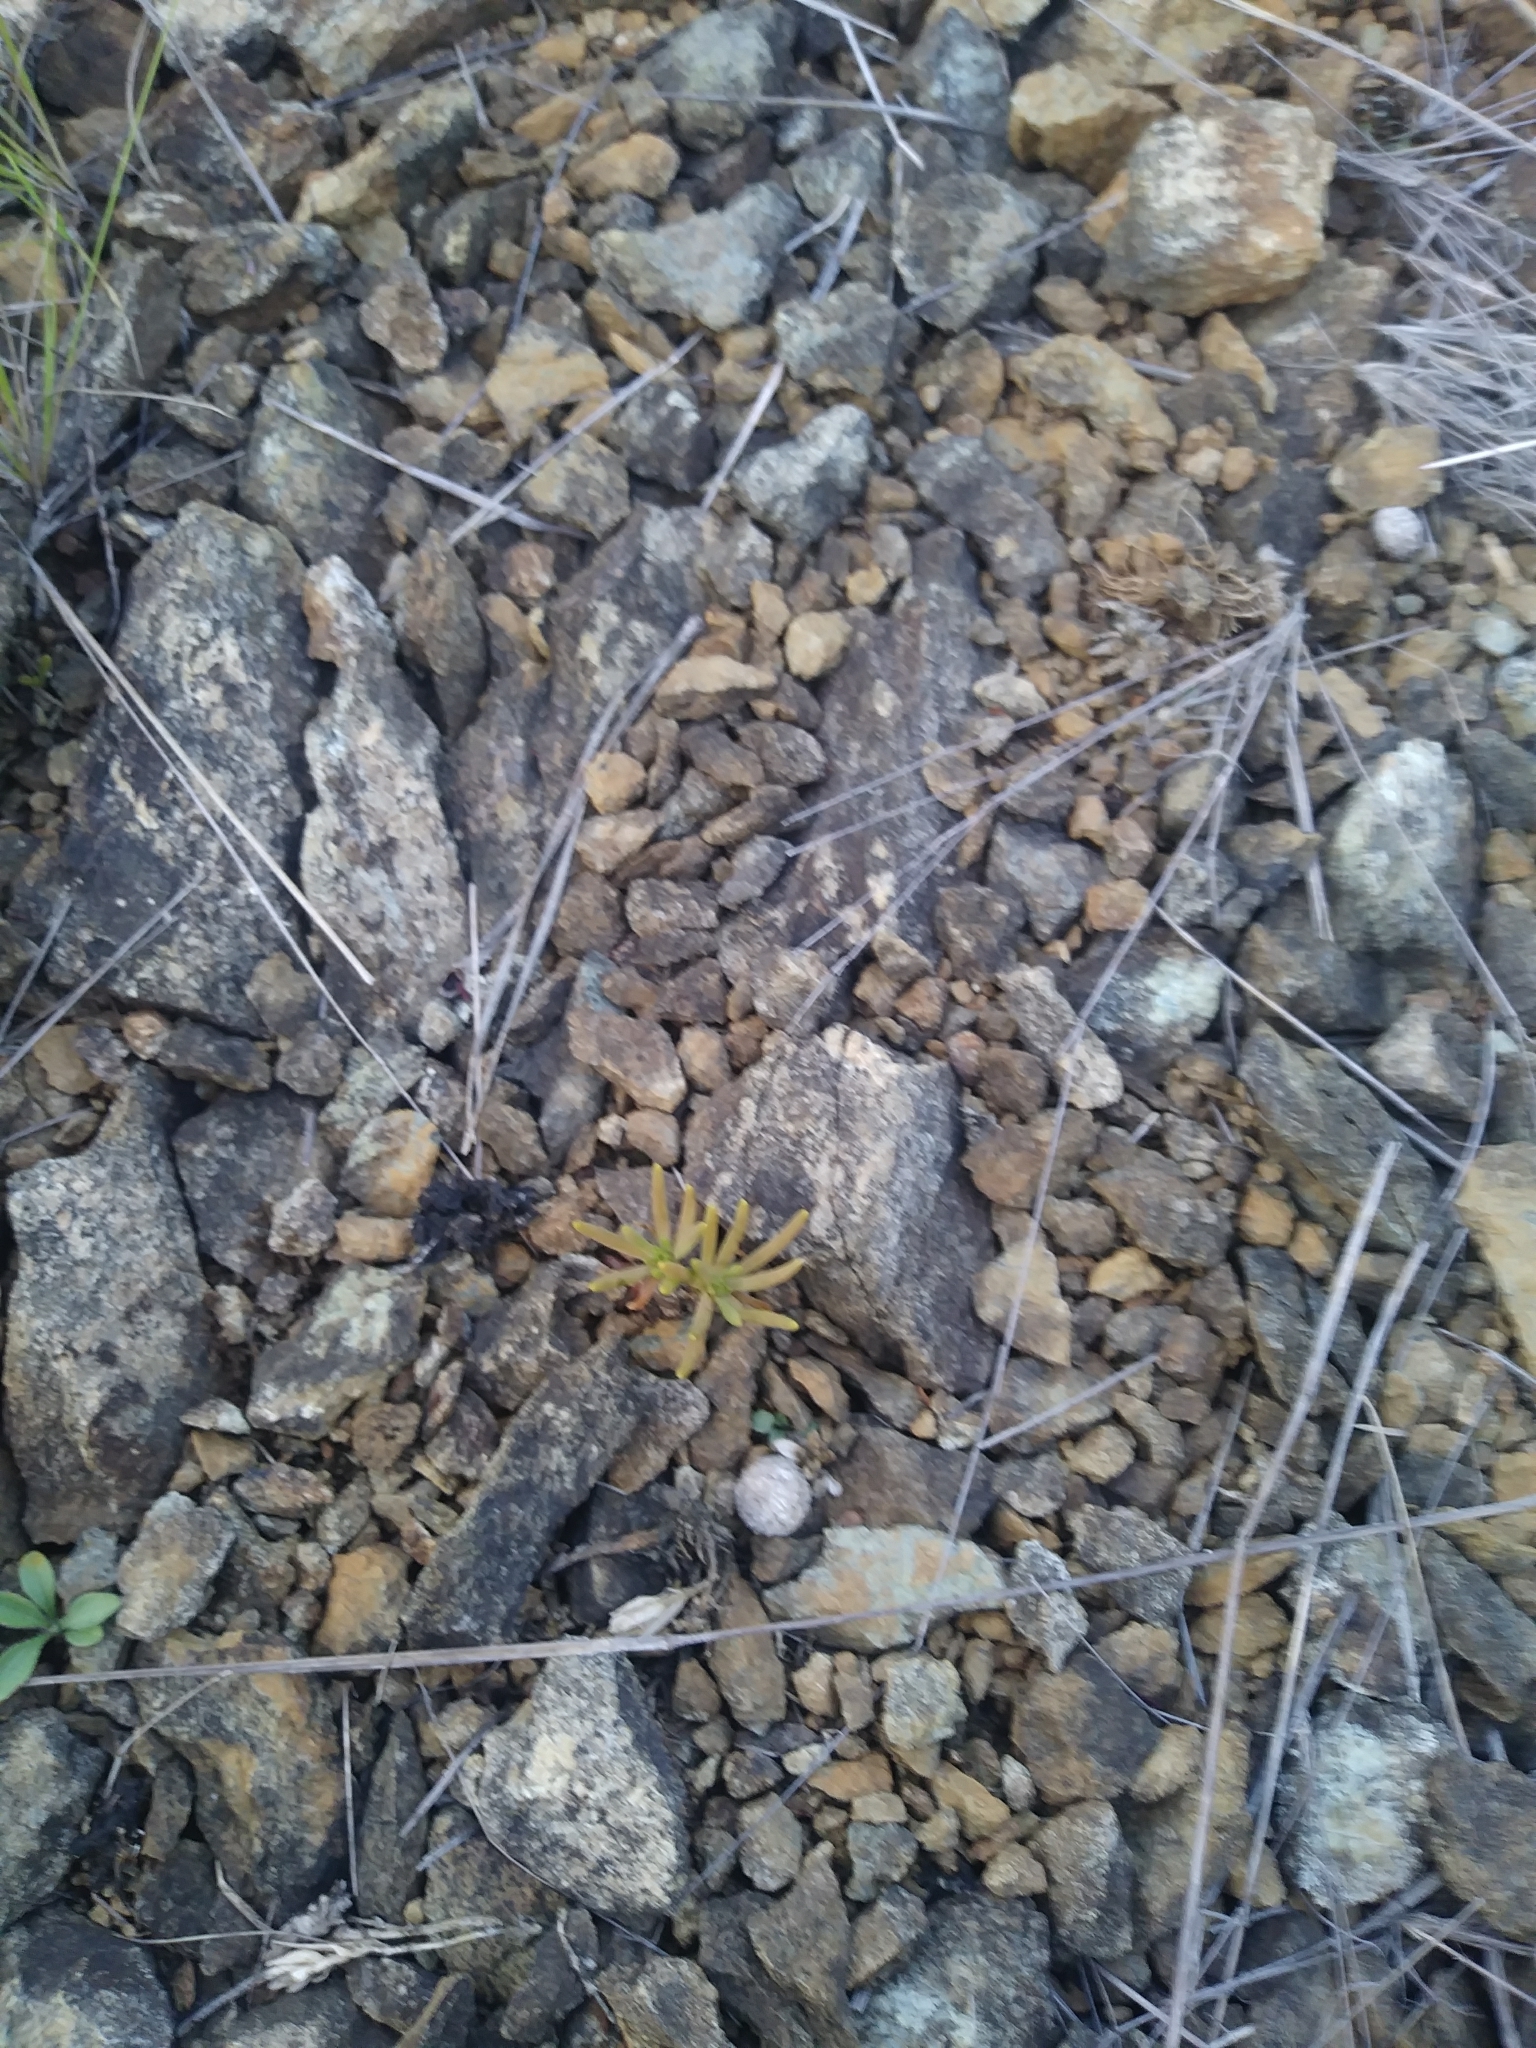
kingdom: Plantae
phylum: Tracheophyta
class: Magnoliopsida
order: Caryophyllales
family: Montiaceae
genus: Phemeranthus
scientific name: Phemeranthus teretifolius
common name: Quill fameflower
